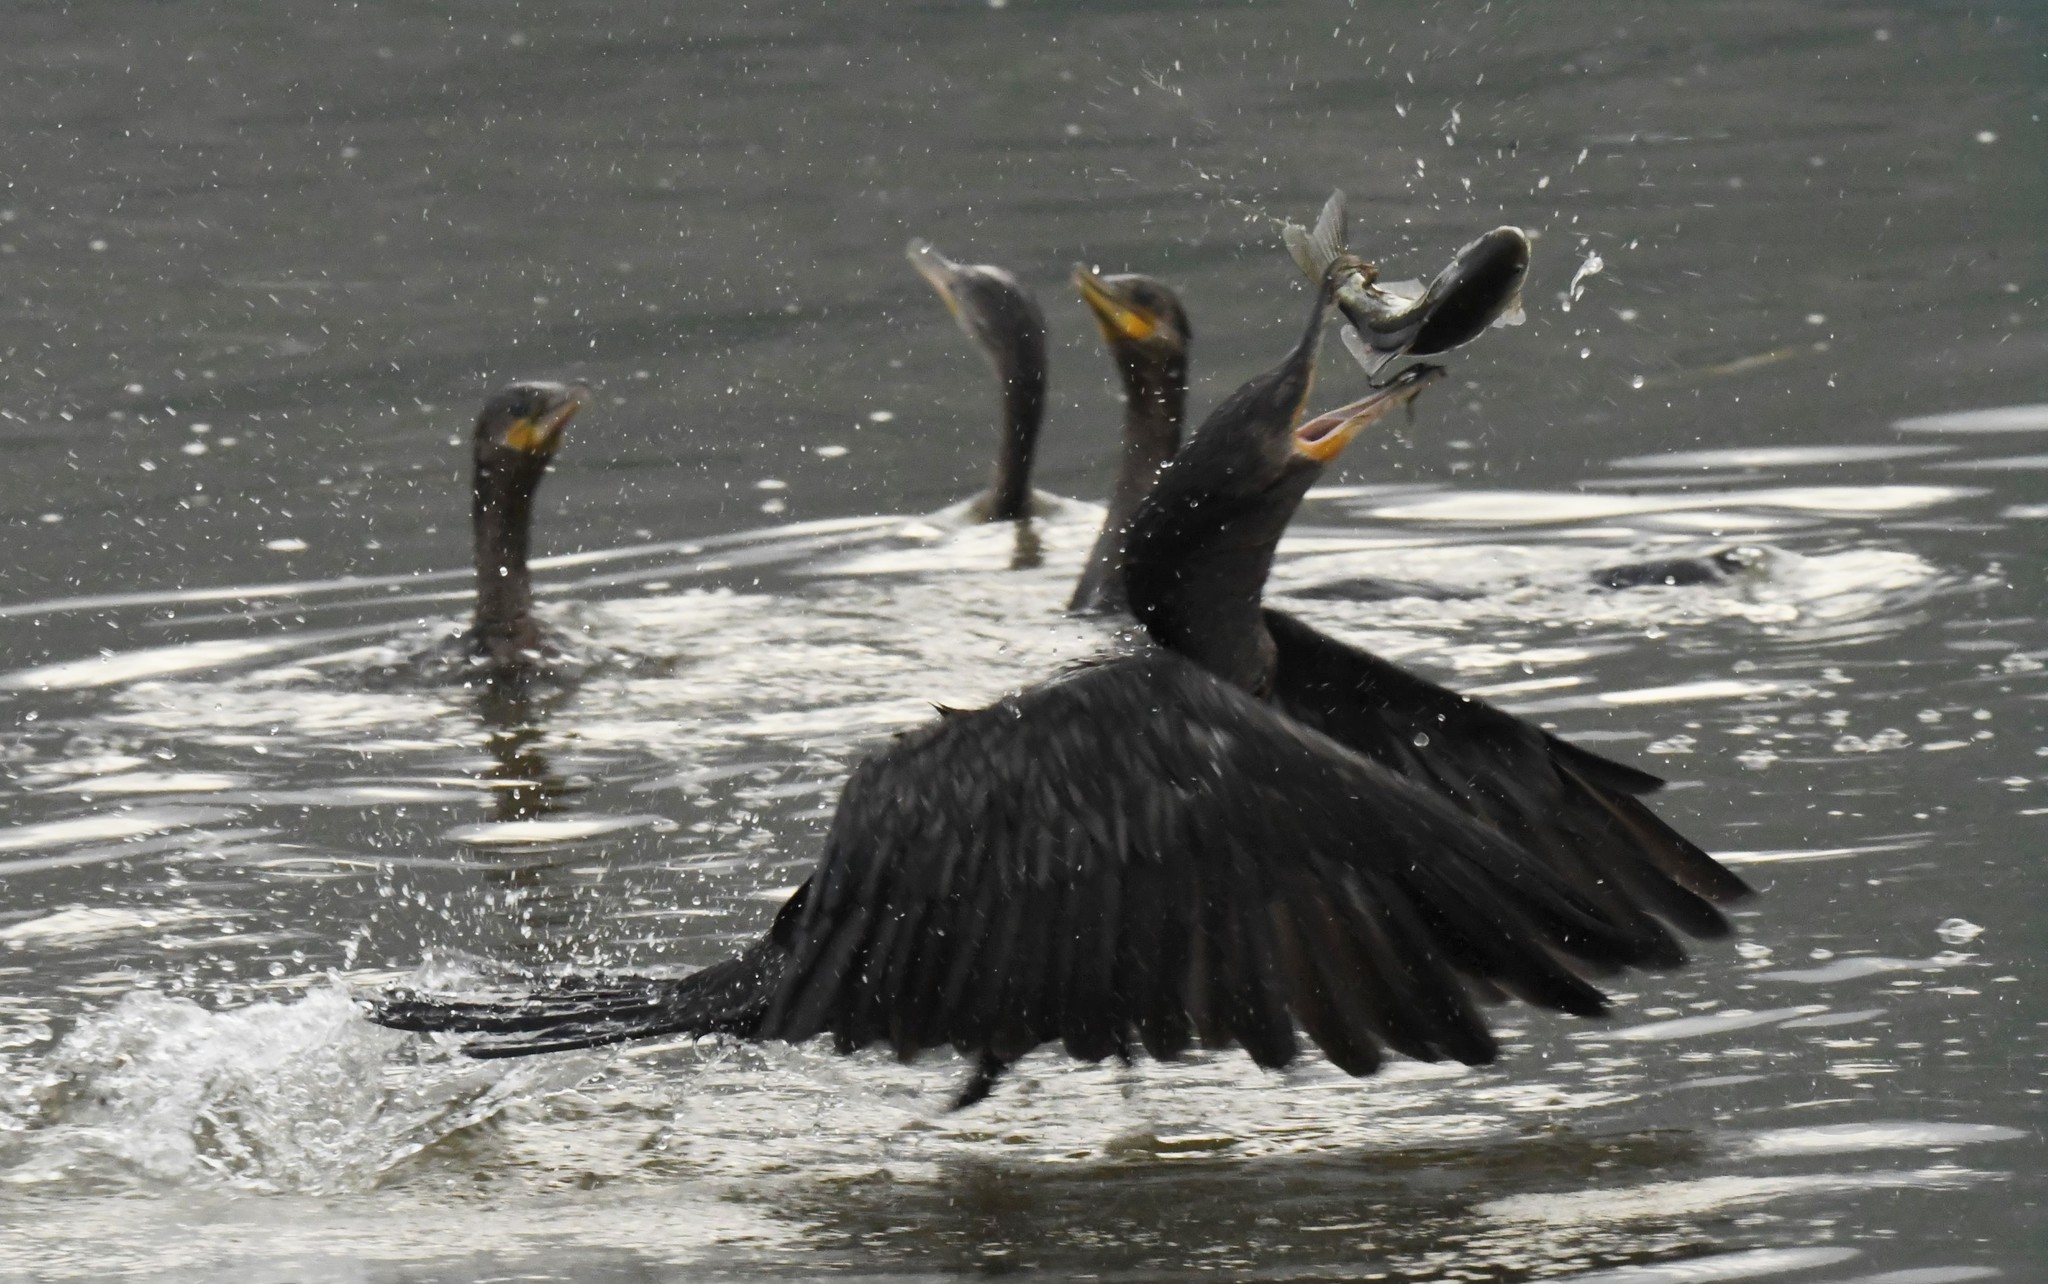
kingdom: Animalia
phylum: Chordata
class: Aves
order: Suliformes
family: Phalacrocoracidae
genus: Phalacrocorax
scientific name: Phalacrocorax auritus
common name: Double-crested cormorant
